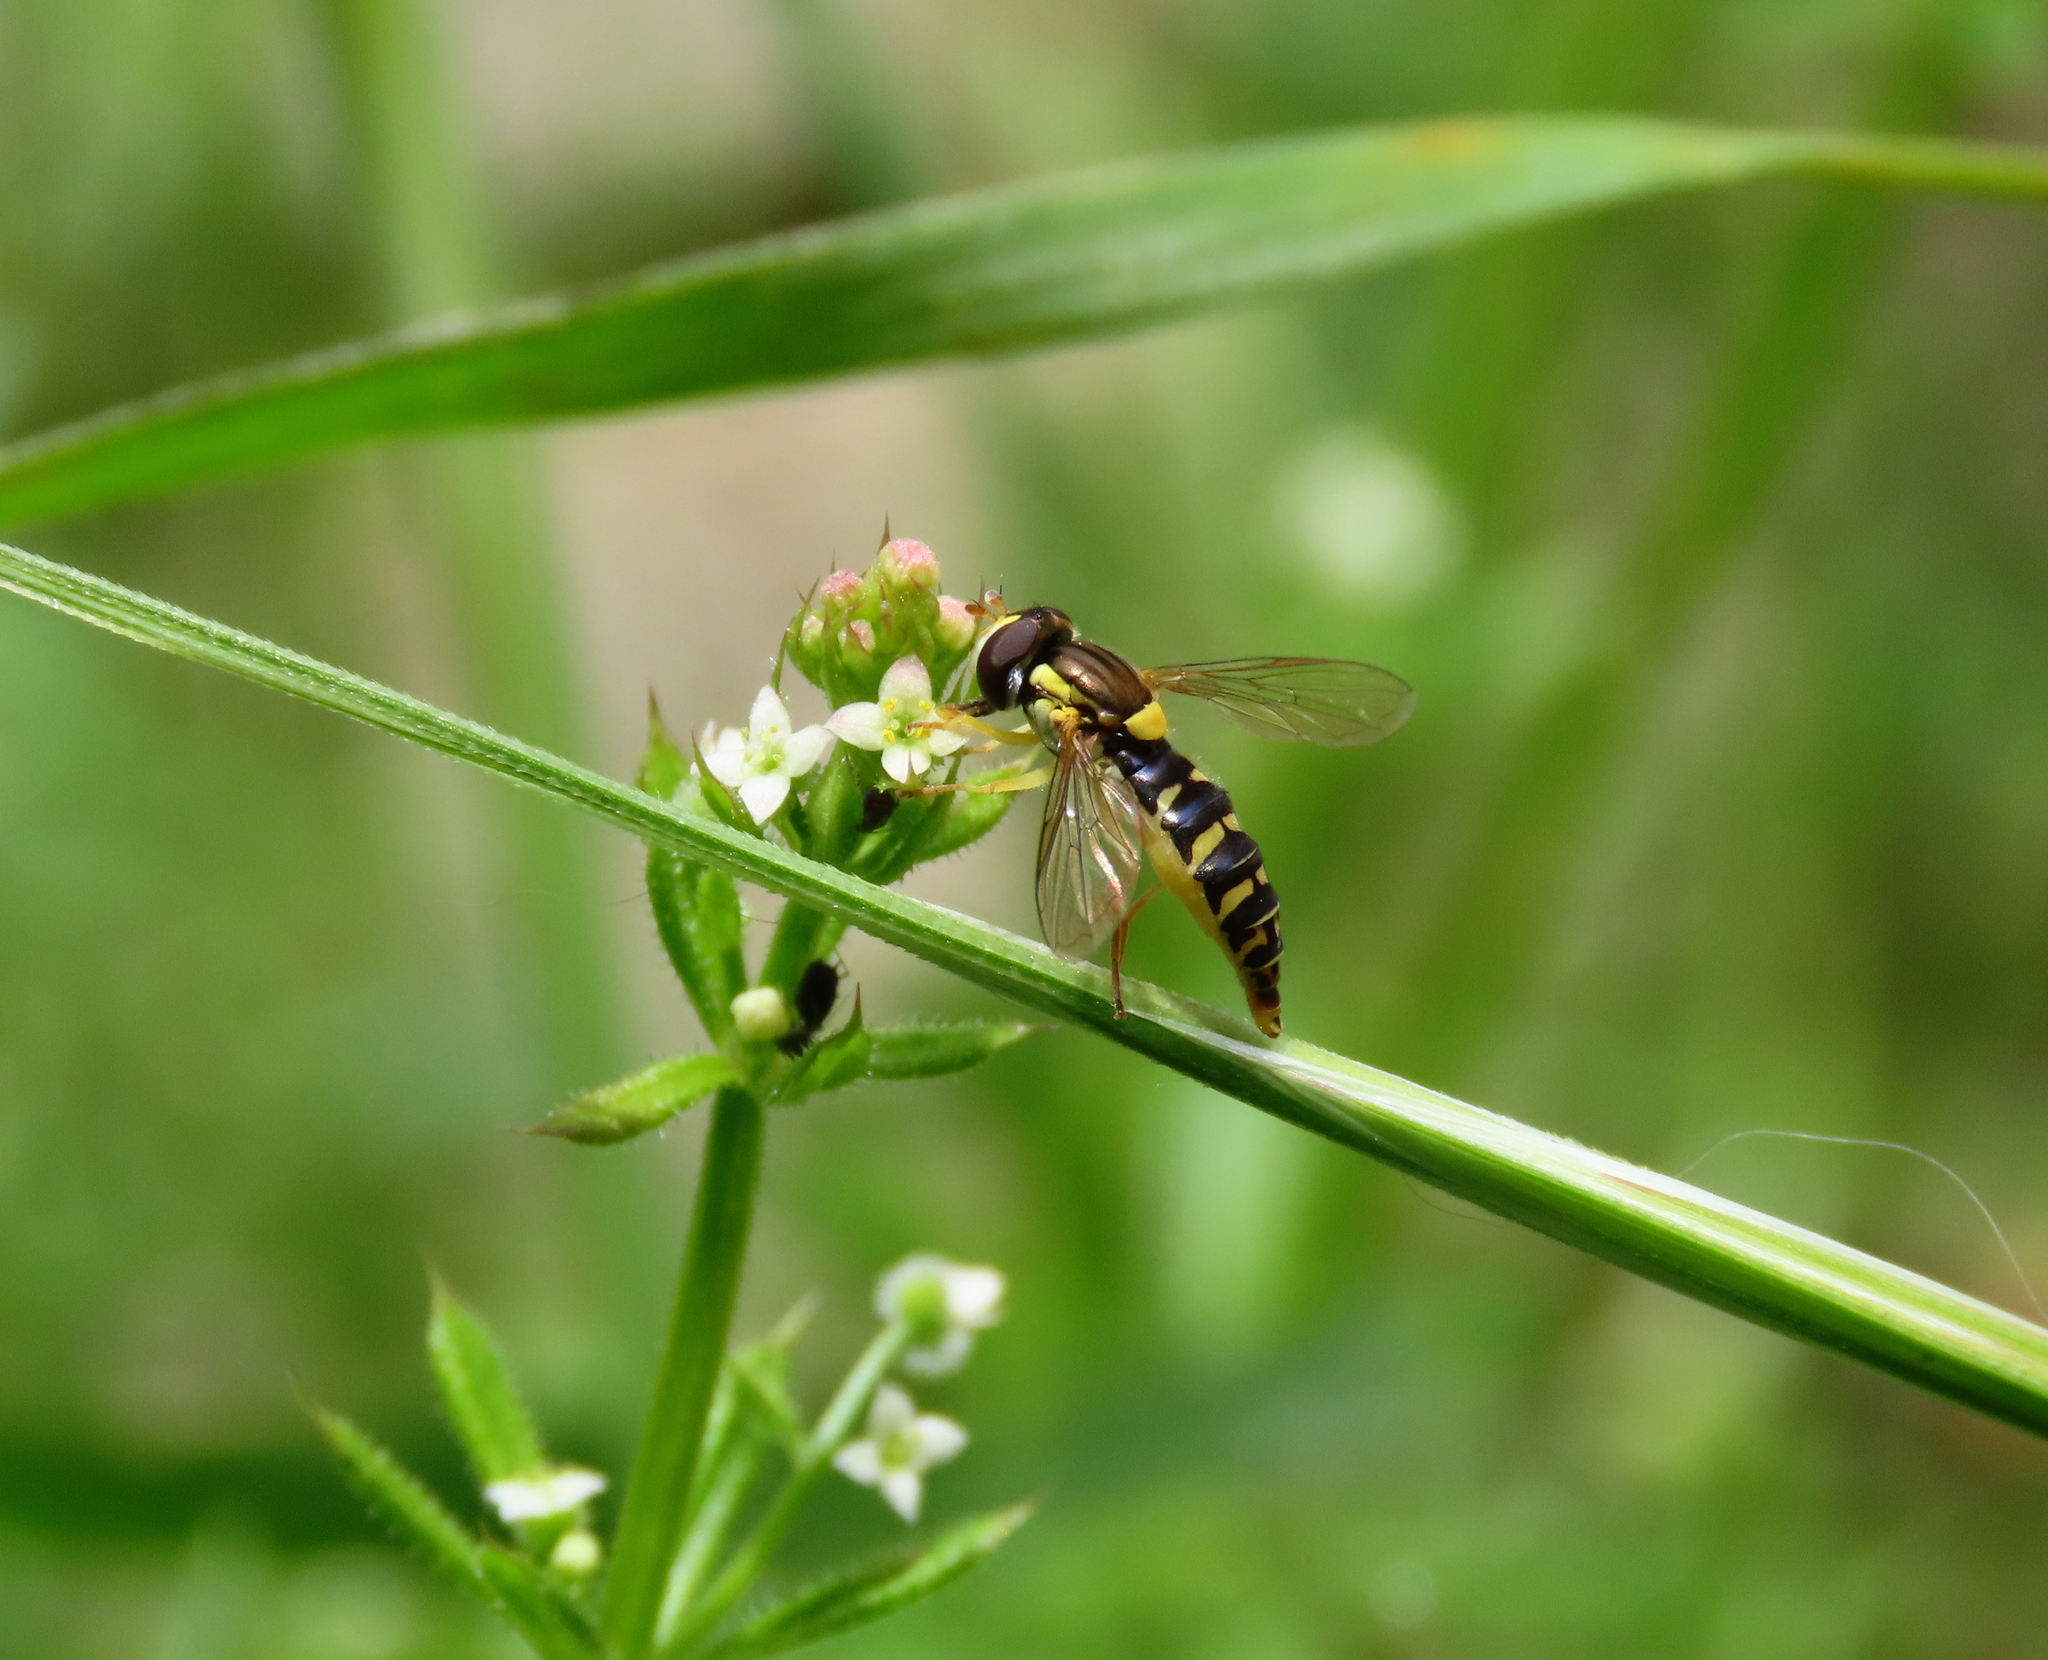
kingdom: Animalia
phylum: Arthropoda
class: Insecta
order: Diptera
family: Syrphidae
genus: Sphaerophoria
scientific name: Sphaerophoria
